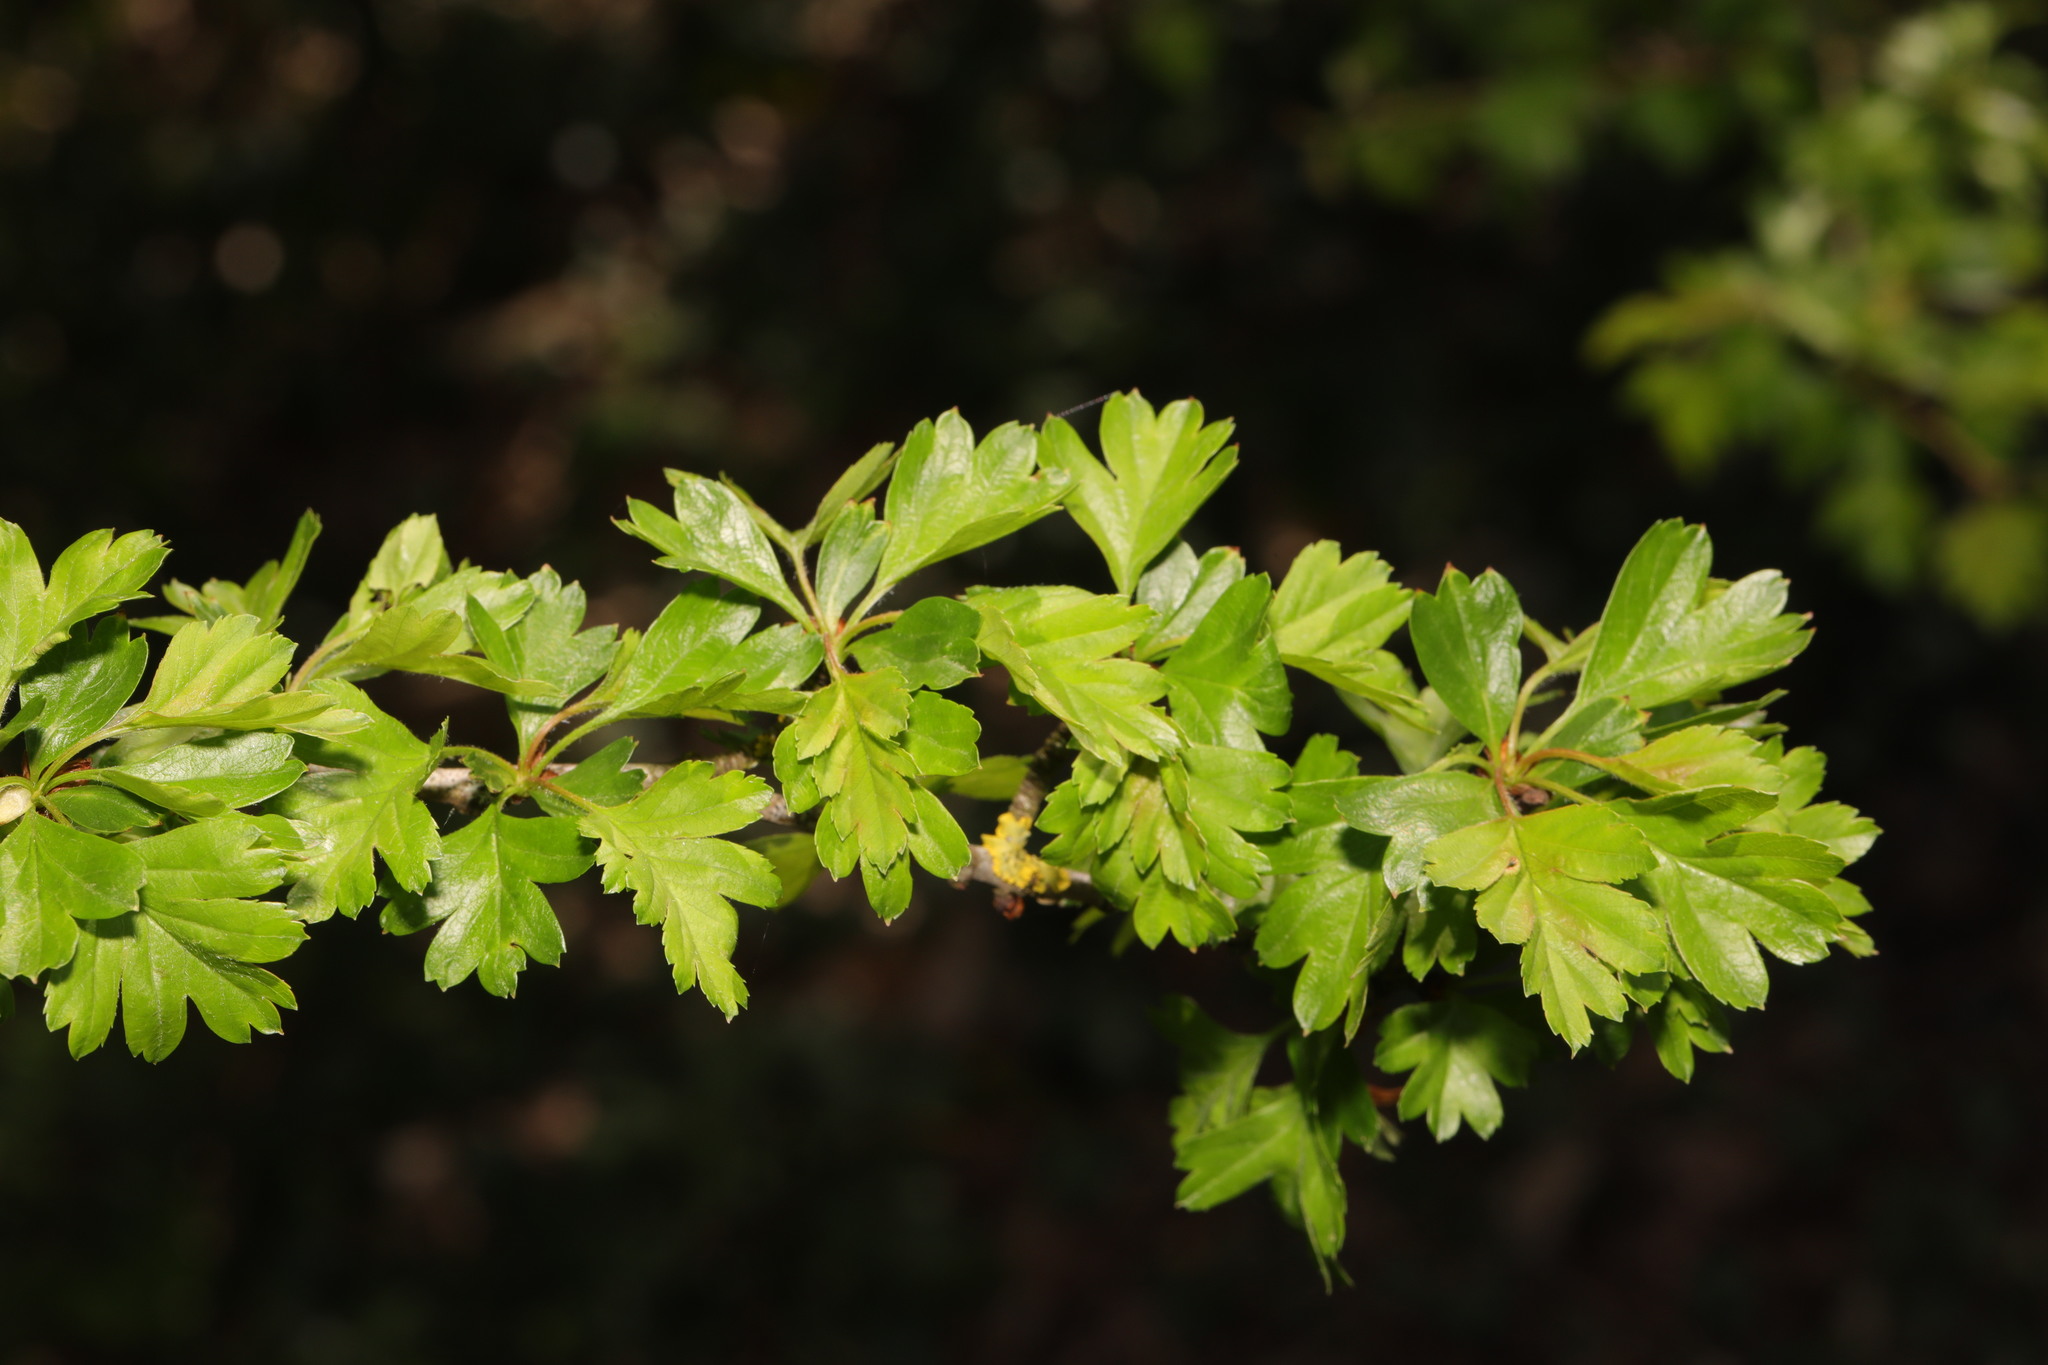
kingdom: Plantae
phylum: Tracheophyta
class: Magnoliopsida
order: Rosales
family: Rosaceae
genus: Crataegus
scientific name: Crataegus monogyna
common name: Hawthorn
